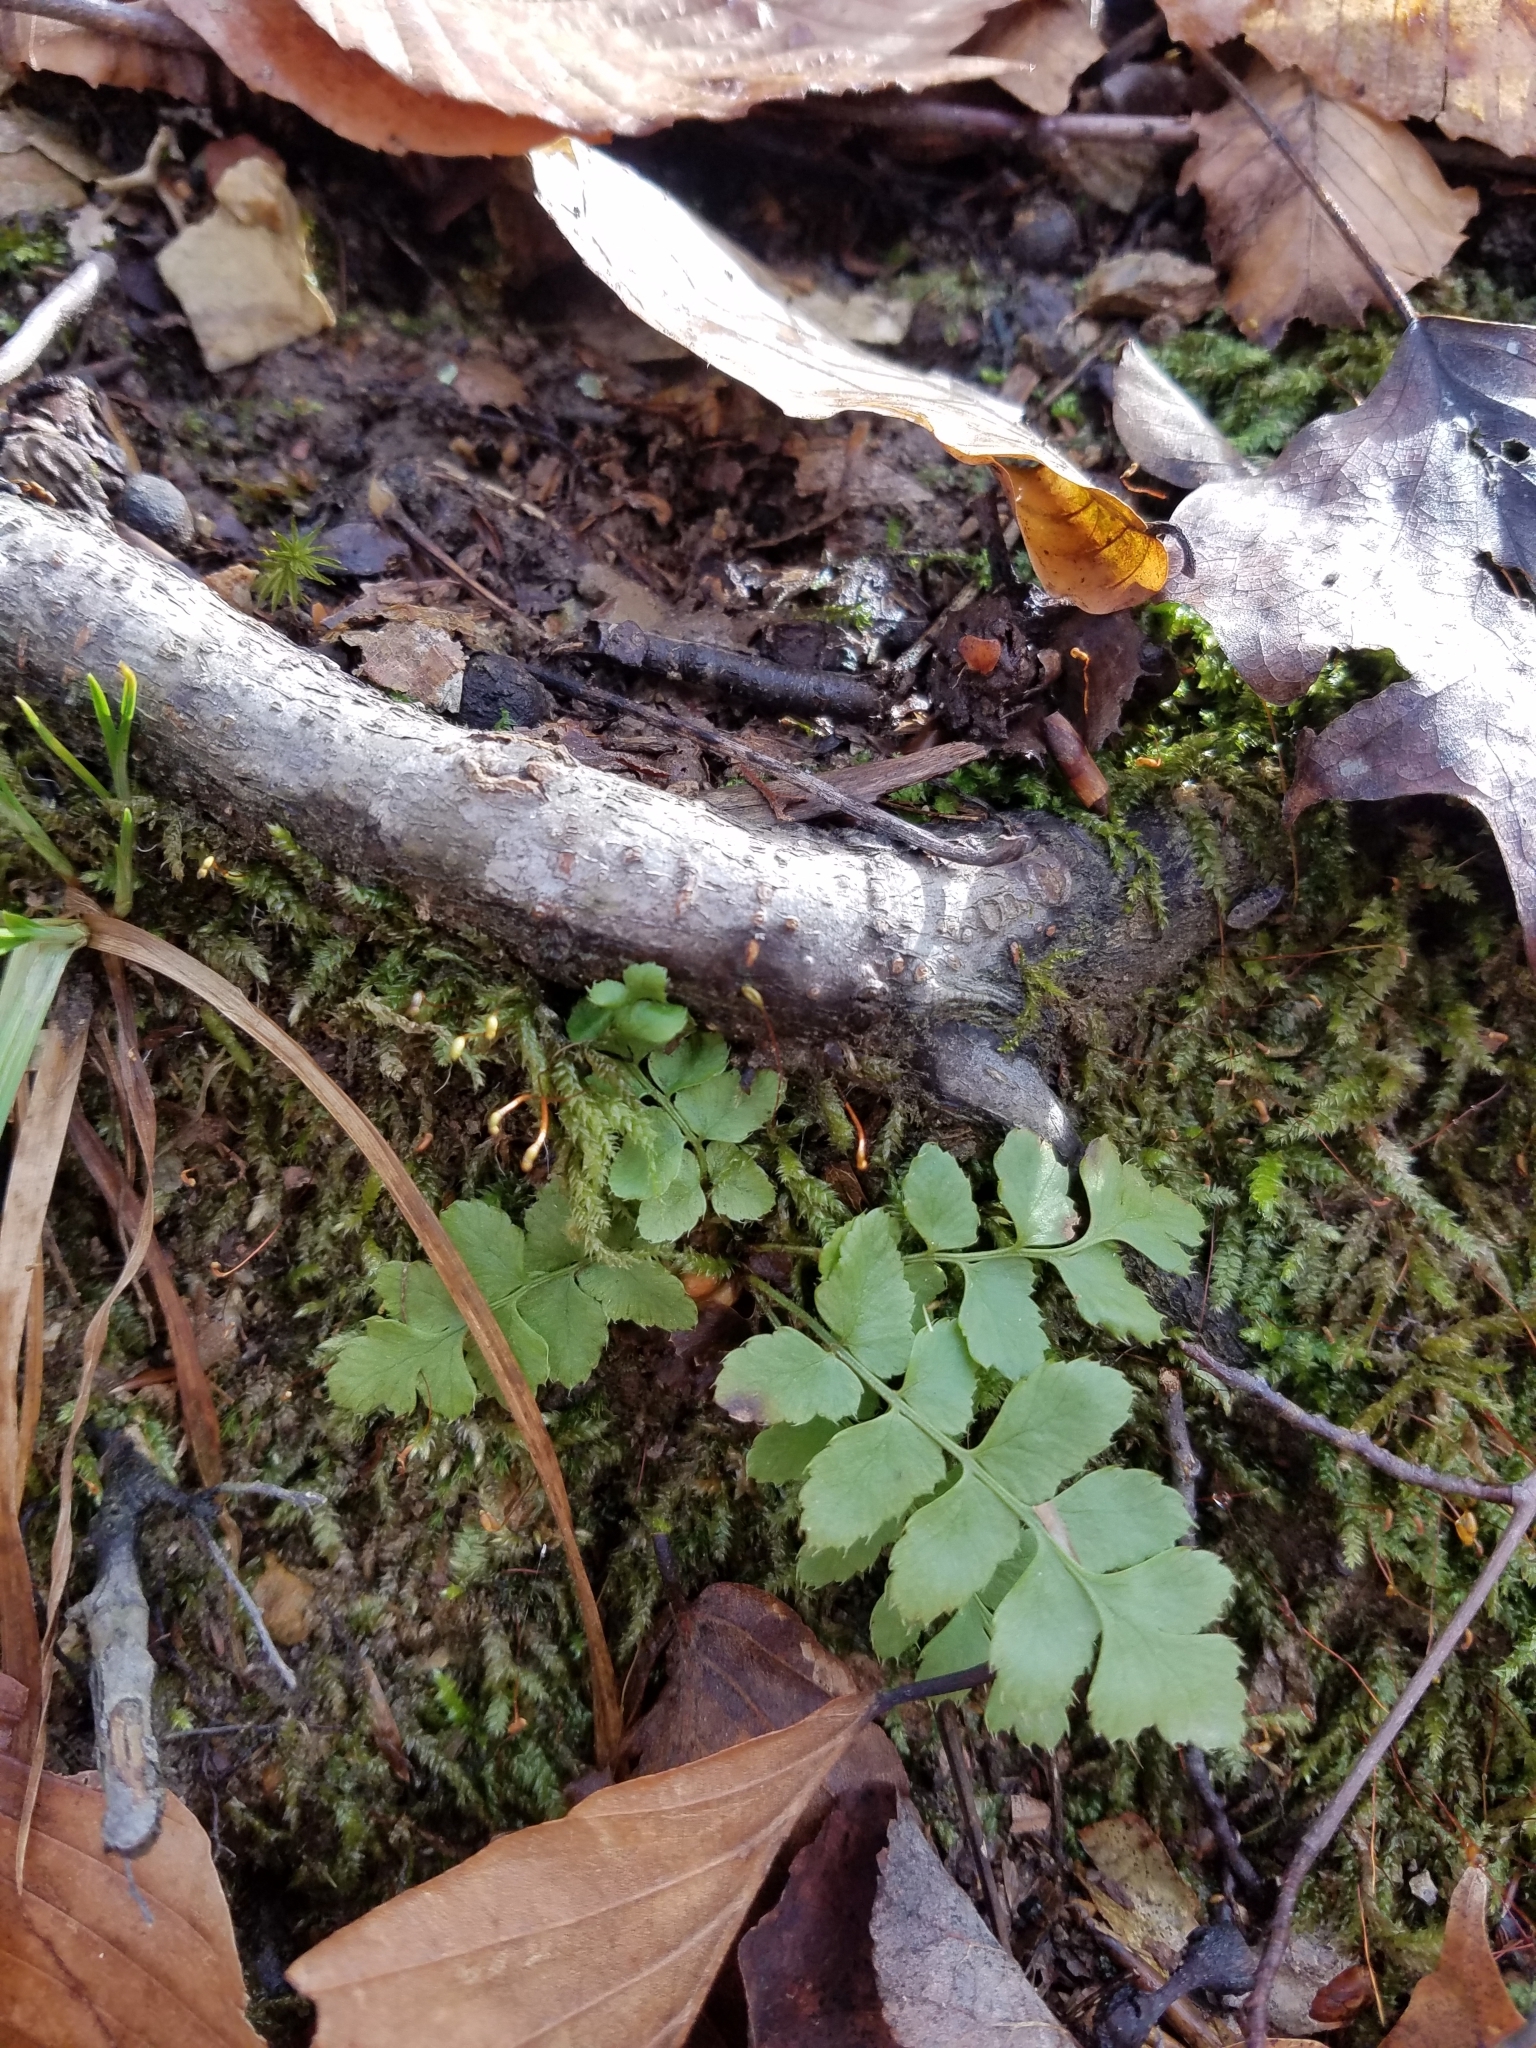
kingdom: Plantae
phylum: Tracheophyta
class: Polypodiopsida
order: Polypodiales
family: Dryopteridaceae
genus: Polystichum
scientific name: Polystichum acrostichoides
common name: Christmas fern
